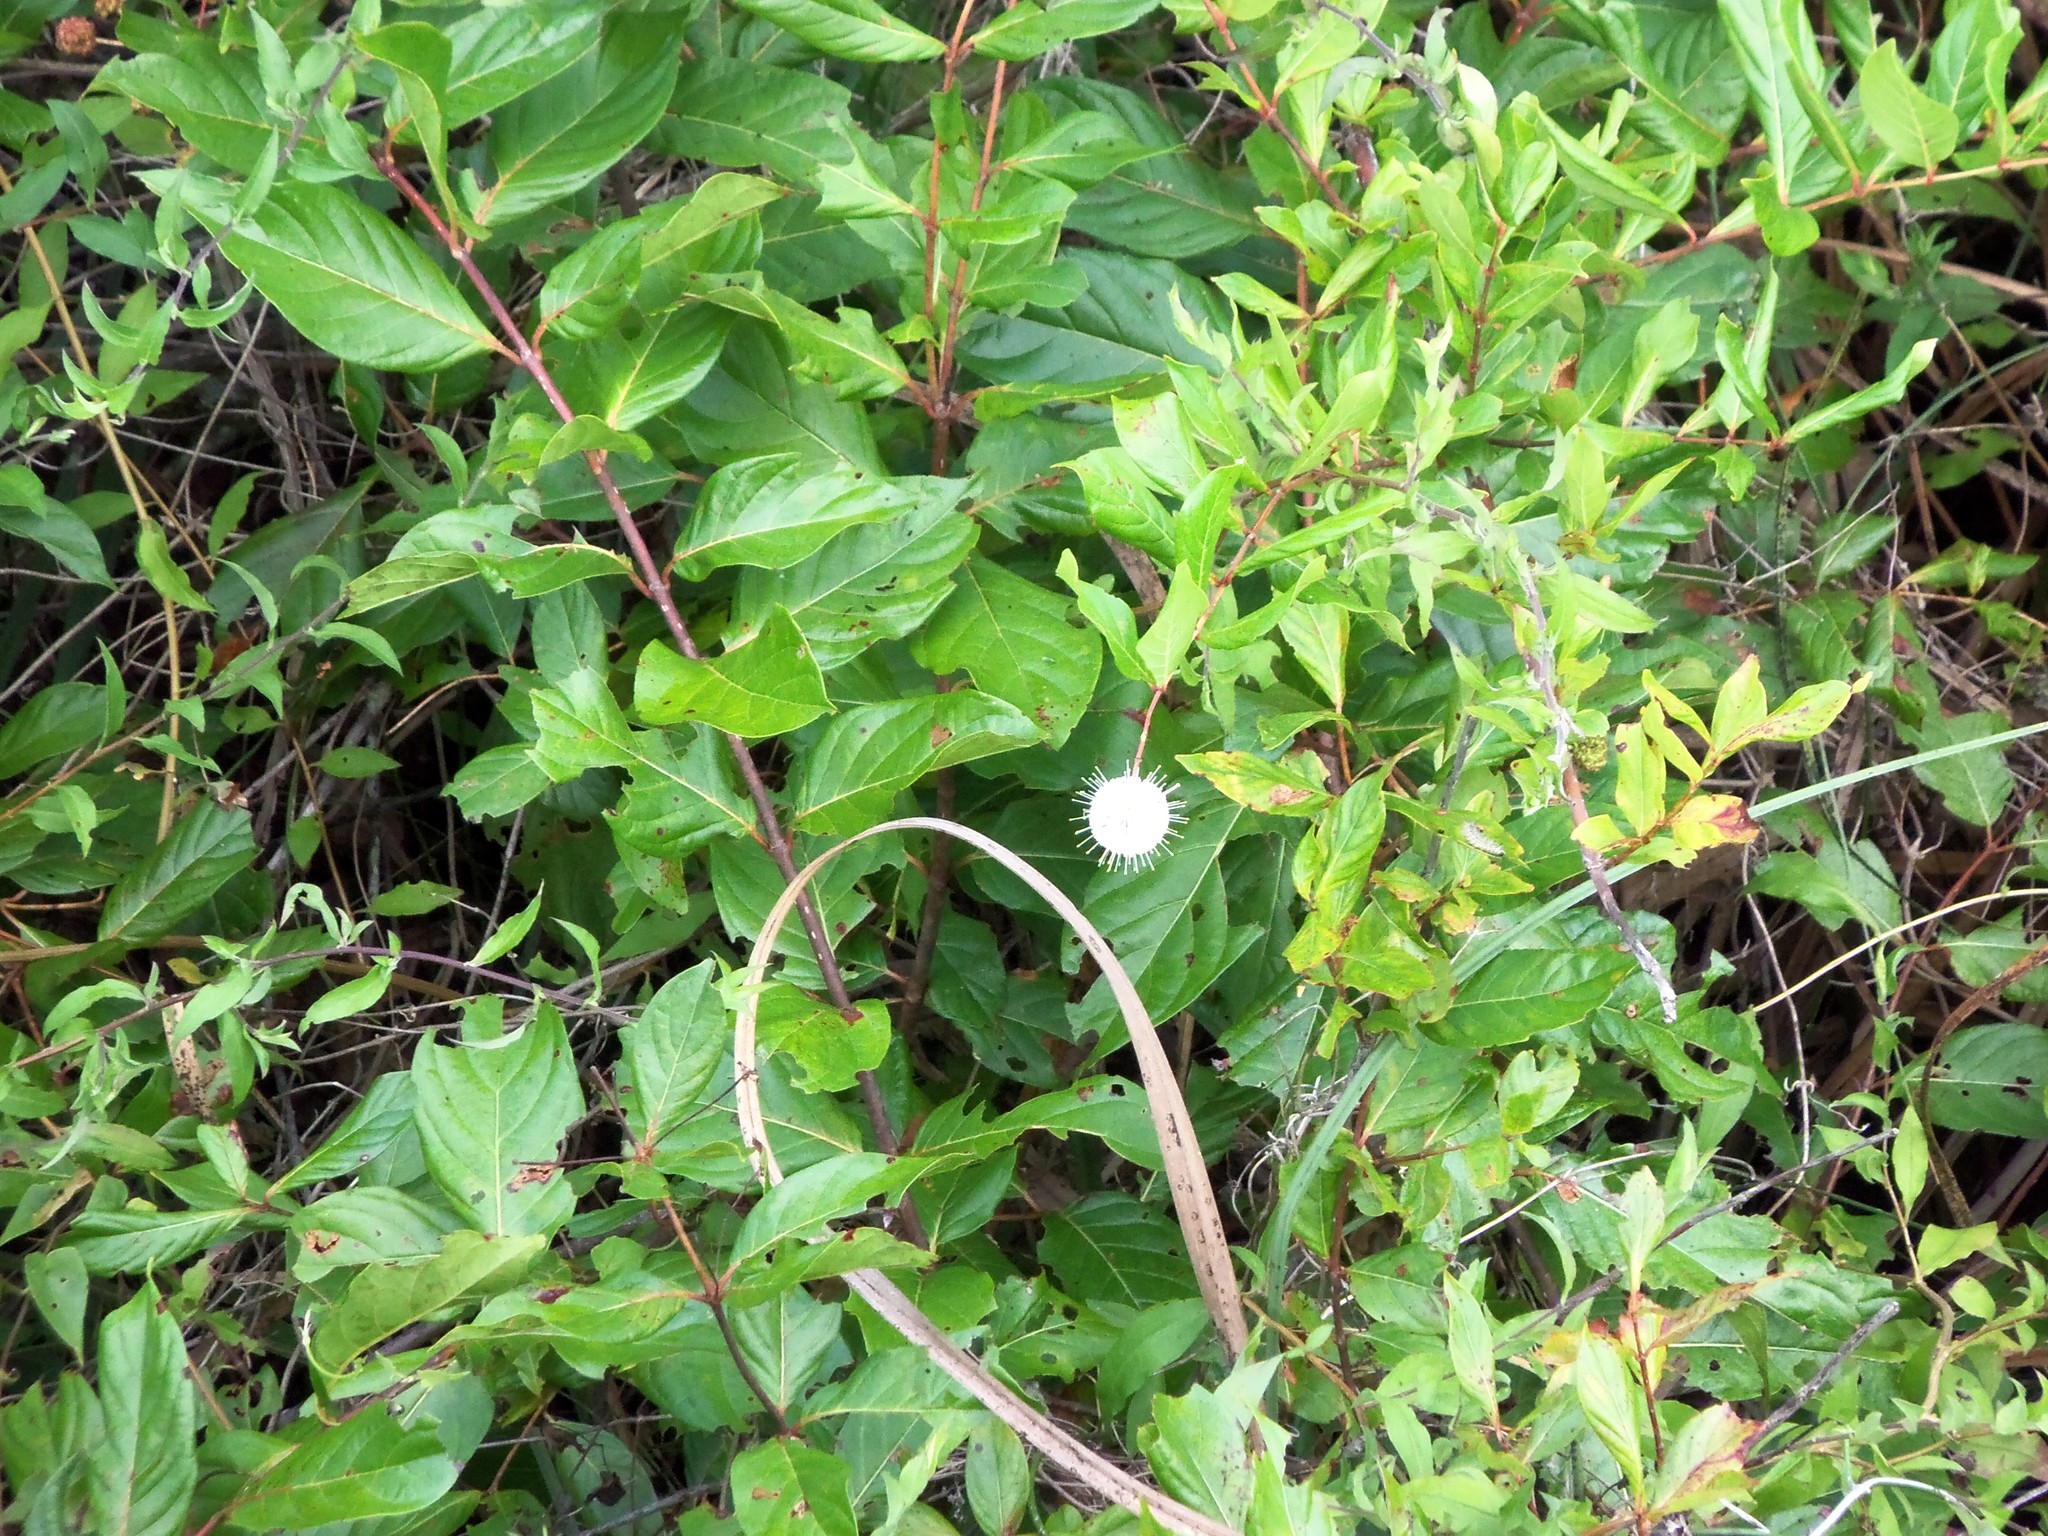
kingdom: Plantae
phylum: Tracheophyta
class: Magnoliopsida
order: Gentianales
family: Rubiaceae
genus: Cephalanthus
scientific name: Cephalanthus occidentalis
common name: Button-willow
